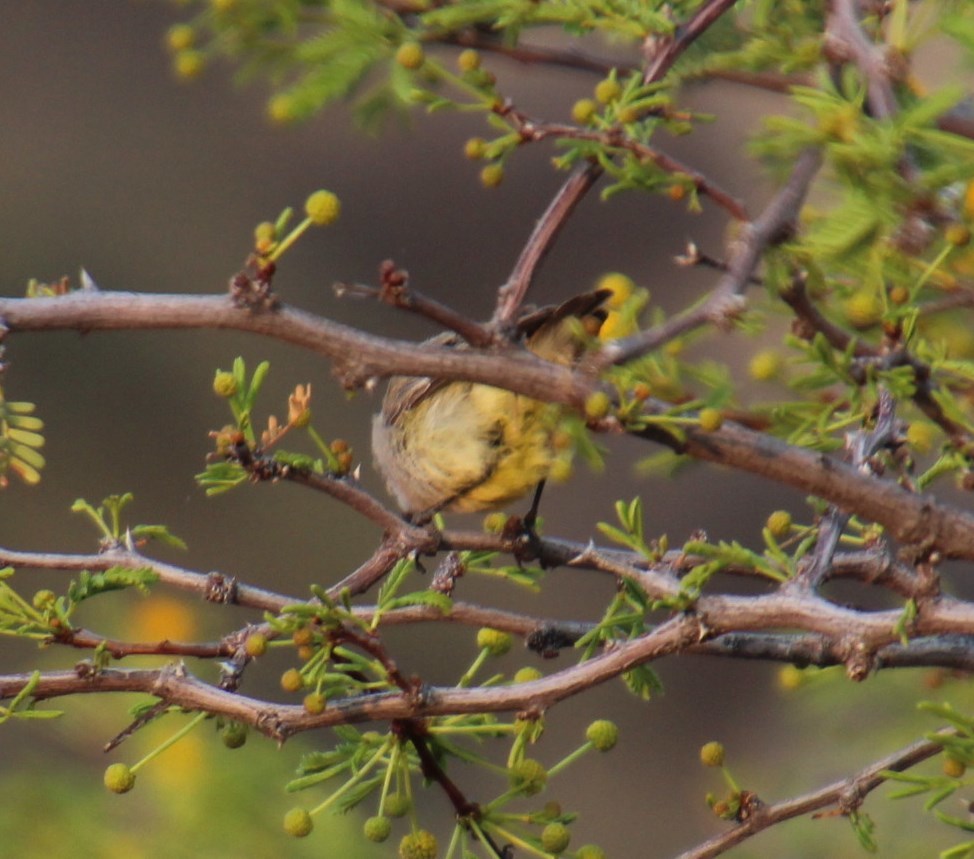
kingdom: Animalia
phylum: Chordata
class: Aves
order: Passeriformes
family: Cisticolidae
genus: Eremomela
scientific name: Eremomela icteropygialis
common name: Yellow-bellied eremomela
